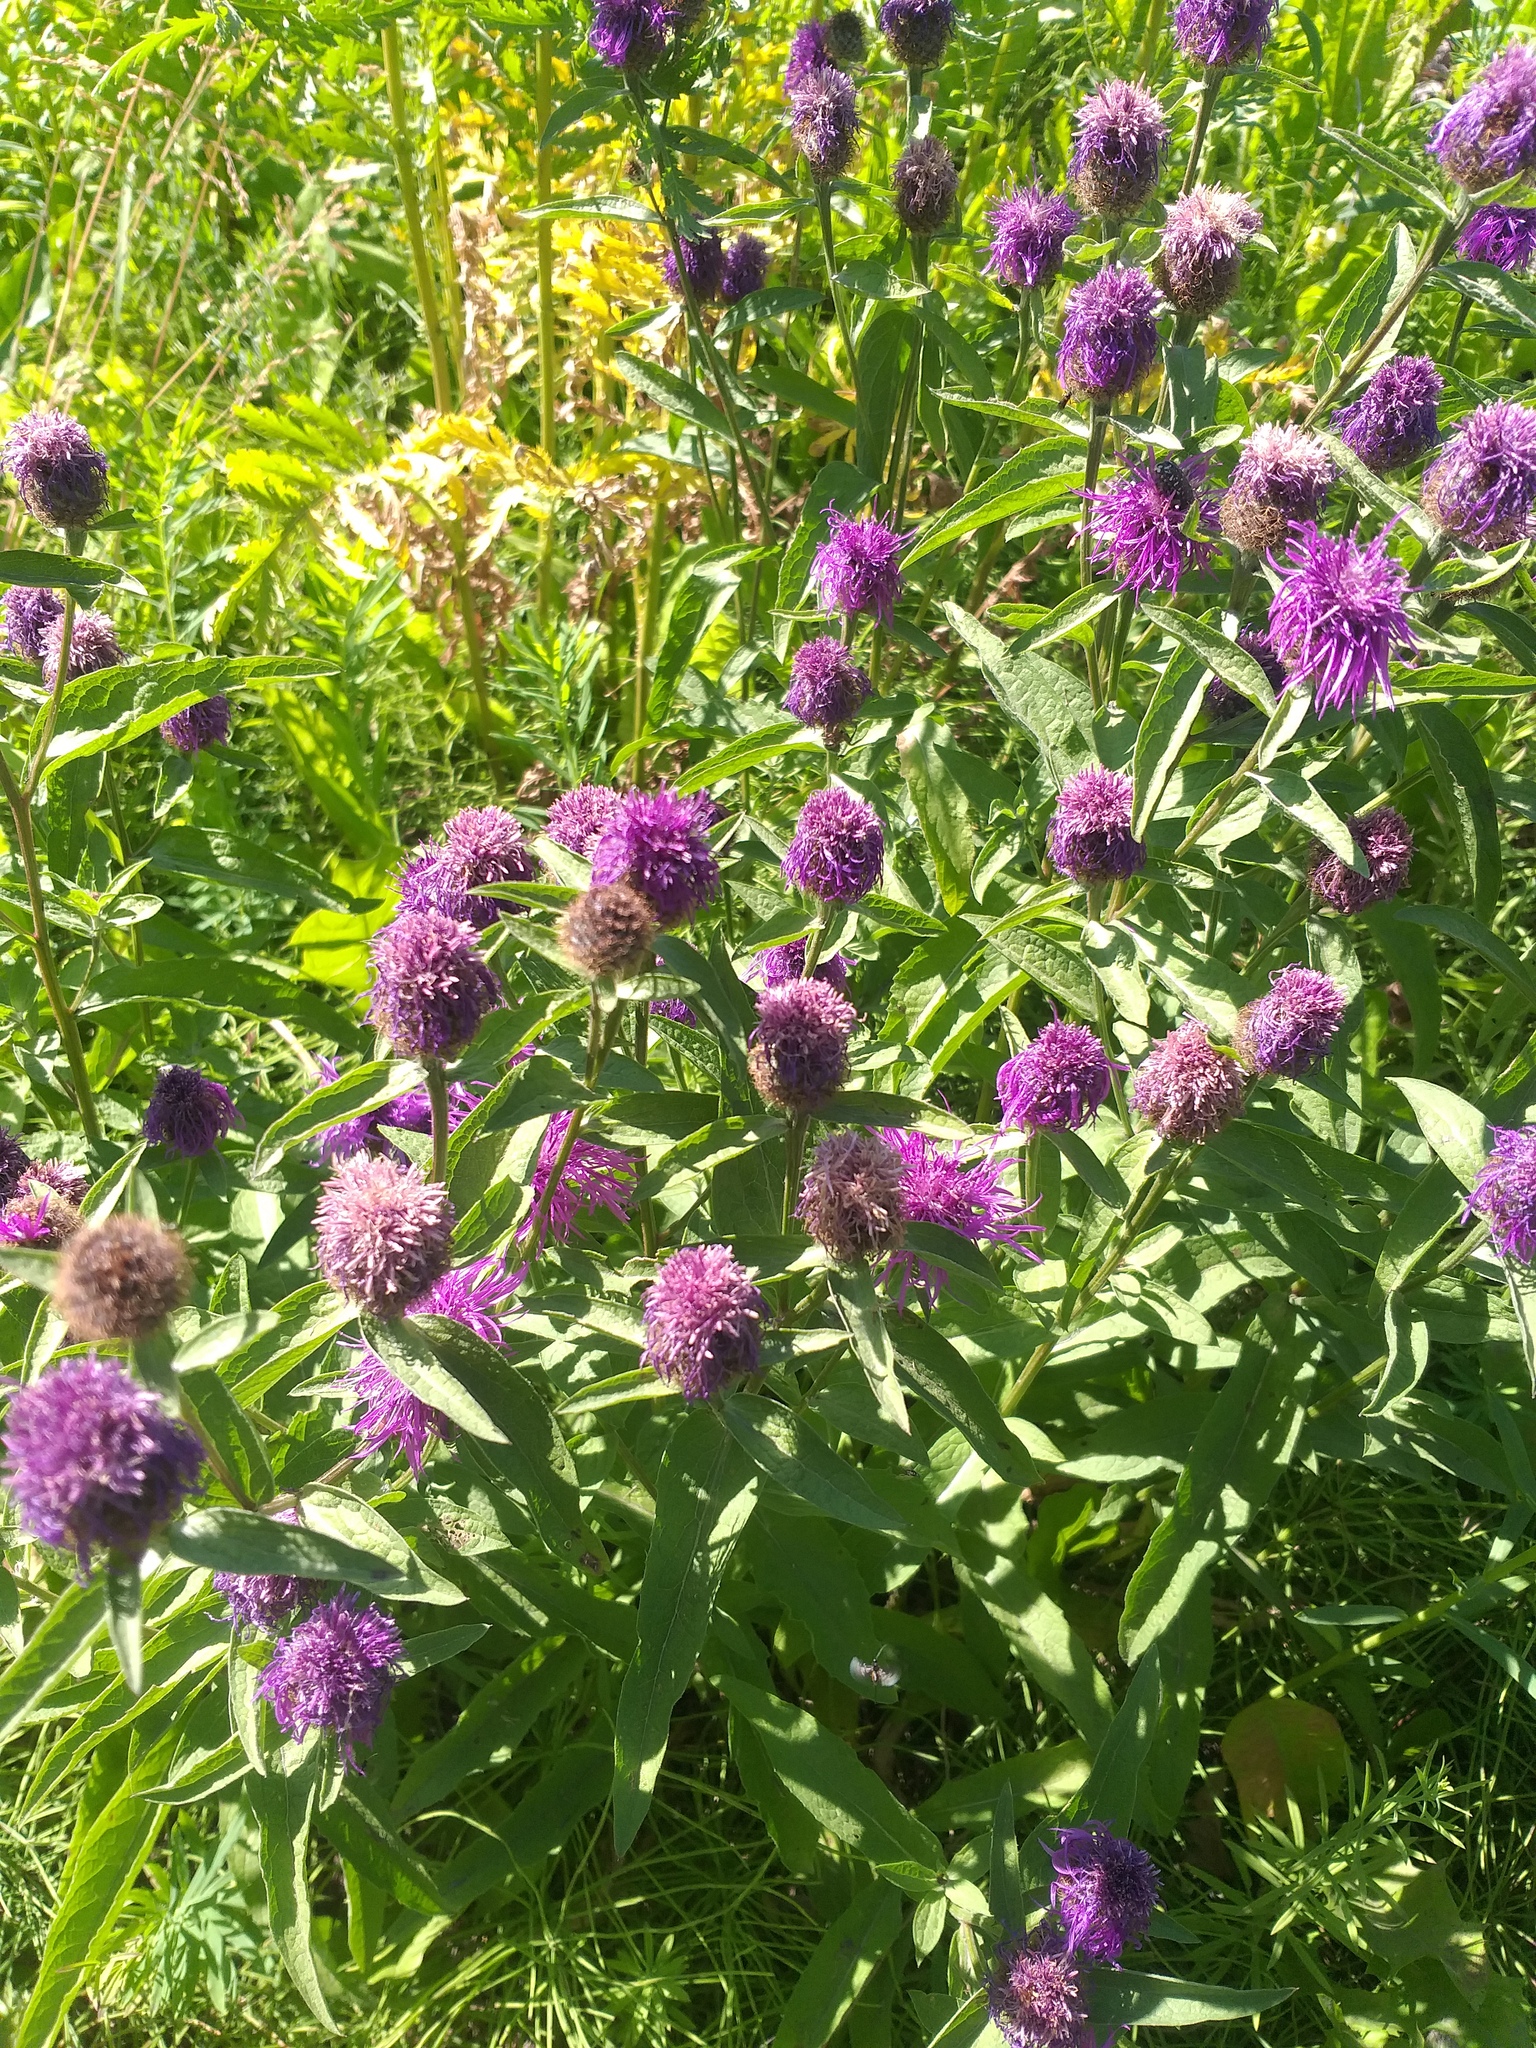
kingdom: Plantae
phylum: Tracheophyta
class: Magnoliopsida
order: Asterales
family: Asteraceae
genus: Centaurea
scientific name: Centaurea pseudophrygia
